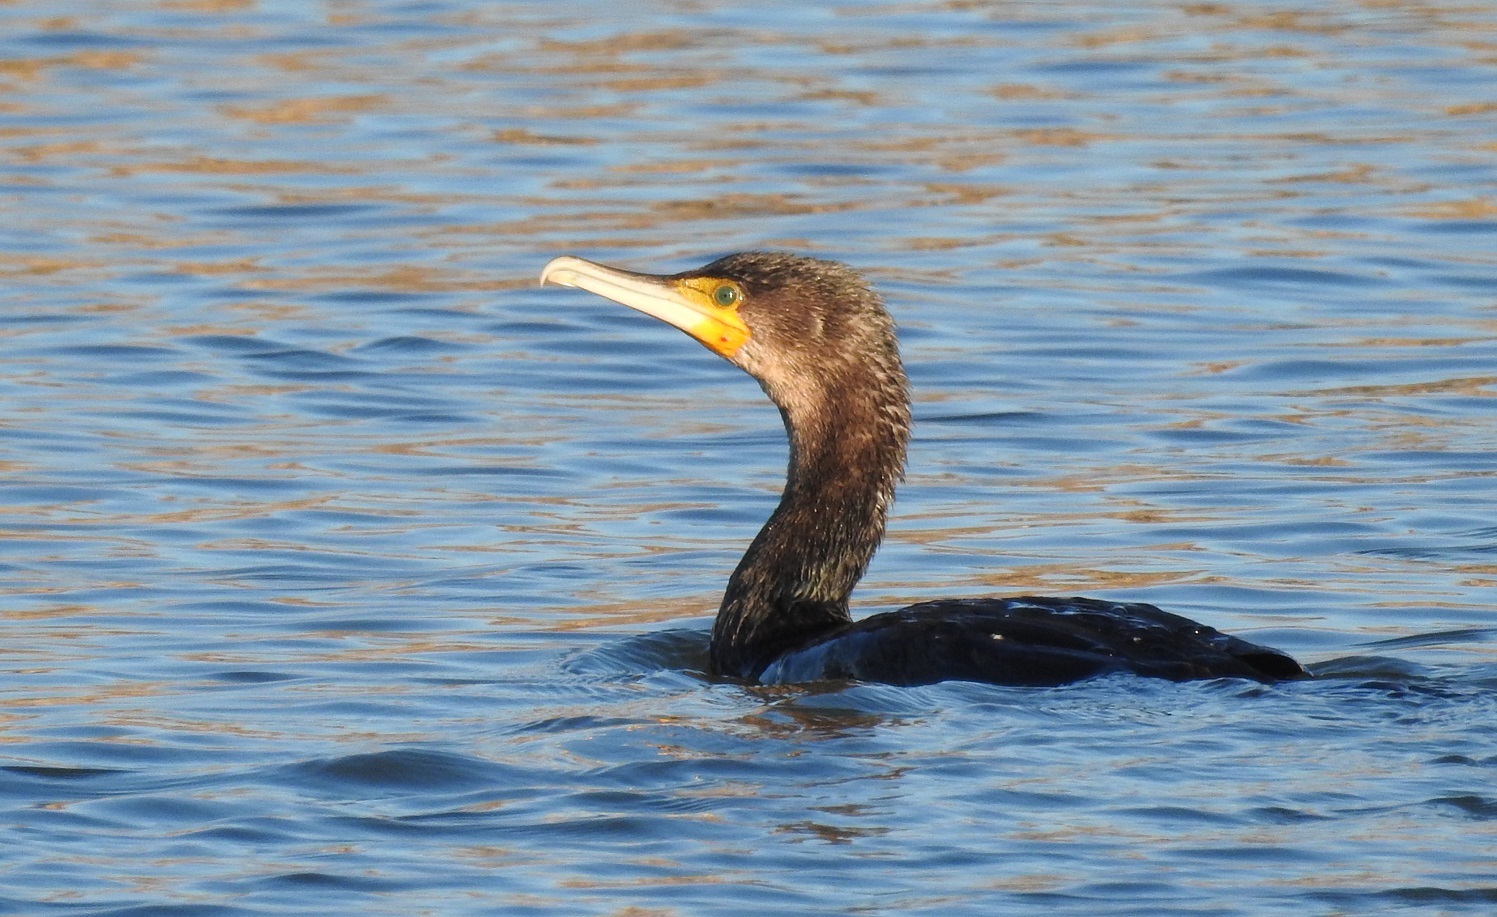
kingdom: Animalia
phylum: Chordata
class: Aves
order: Suliformes
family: Phalacrocoracidae
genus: Phalacrocorax
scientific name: Phalacrocorax carbo
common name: Great cormorant
